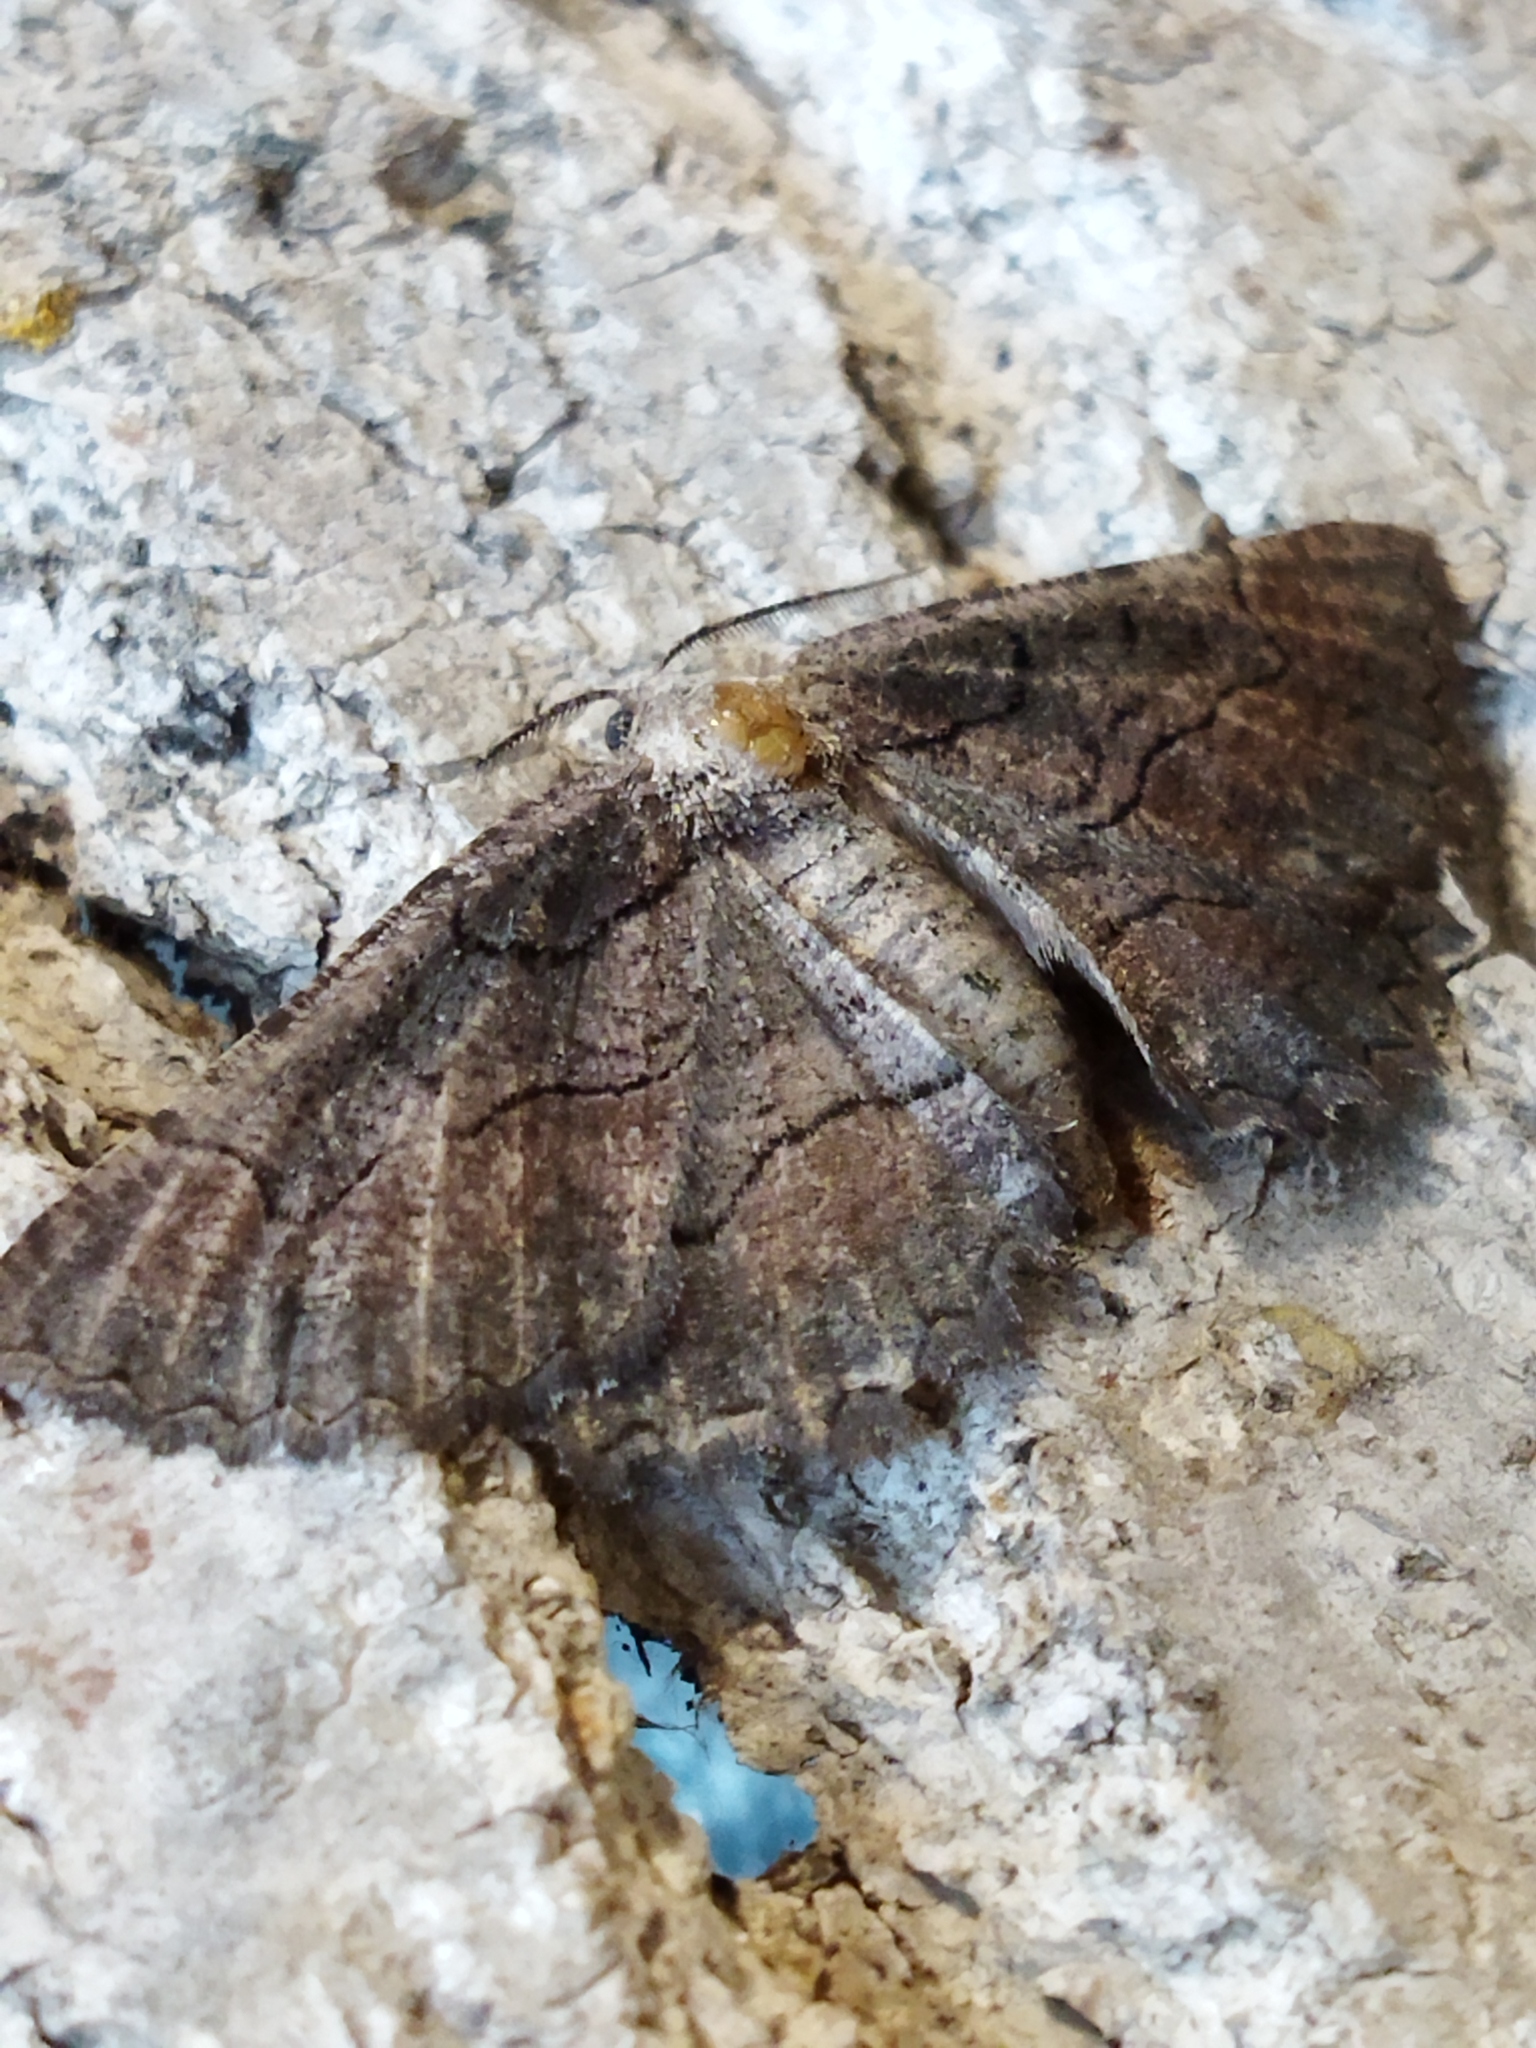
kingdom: Animalia
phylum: Arthropoda
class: Insecta
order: Lepidoptera
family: Geometridae
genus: Nychiodes
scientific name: Nychiodes waltheri
